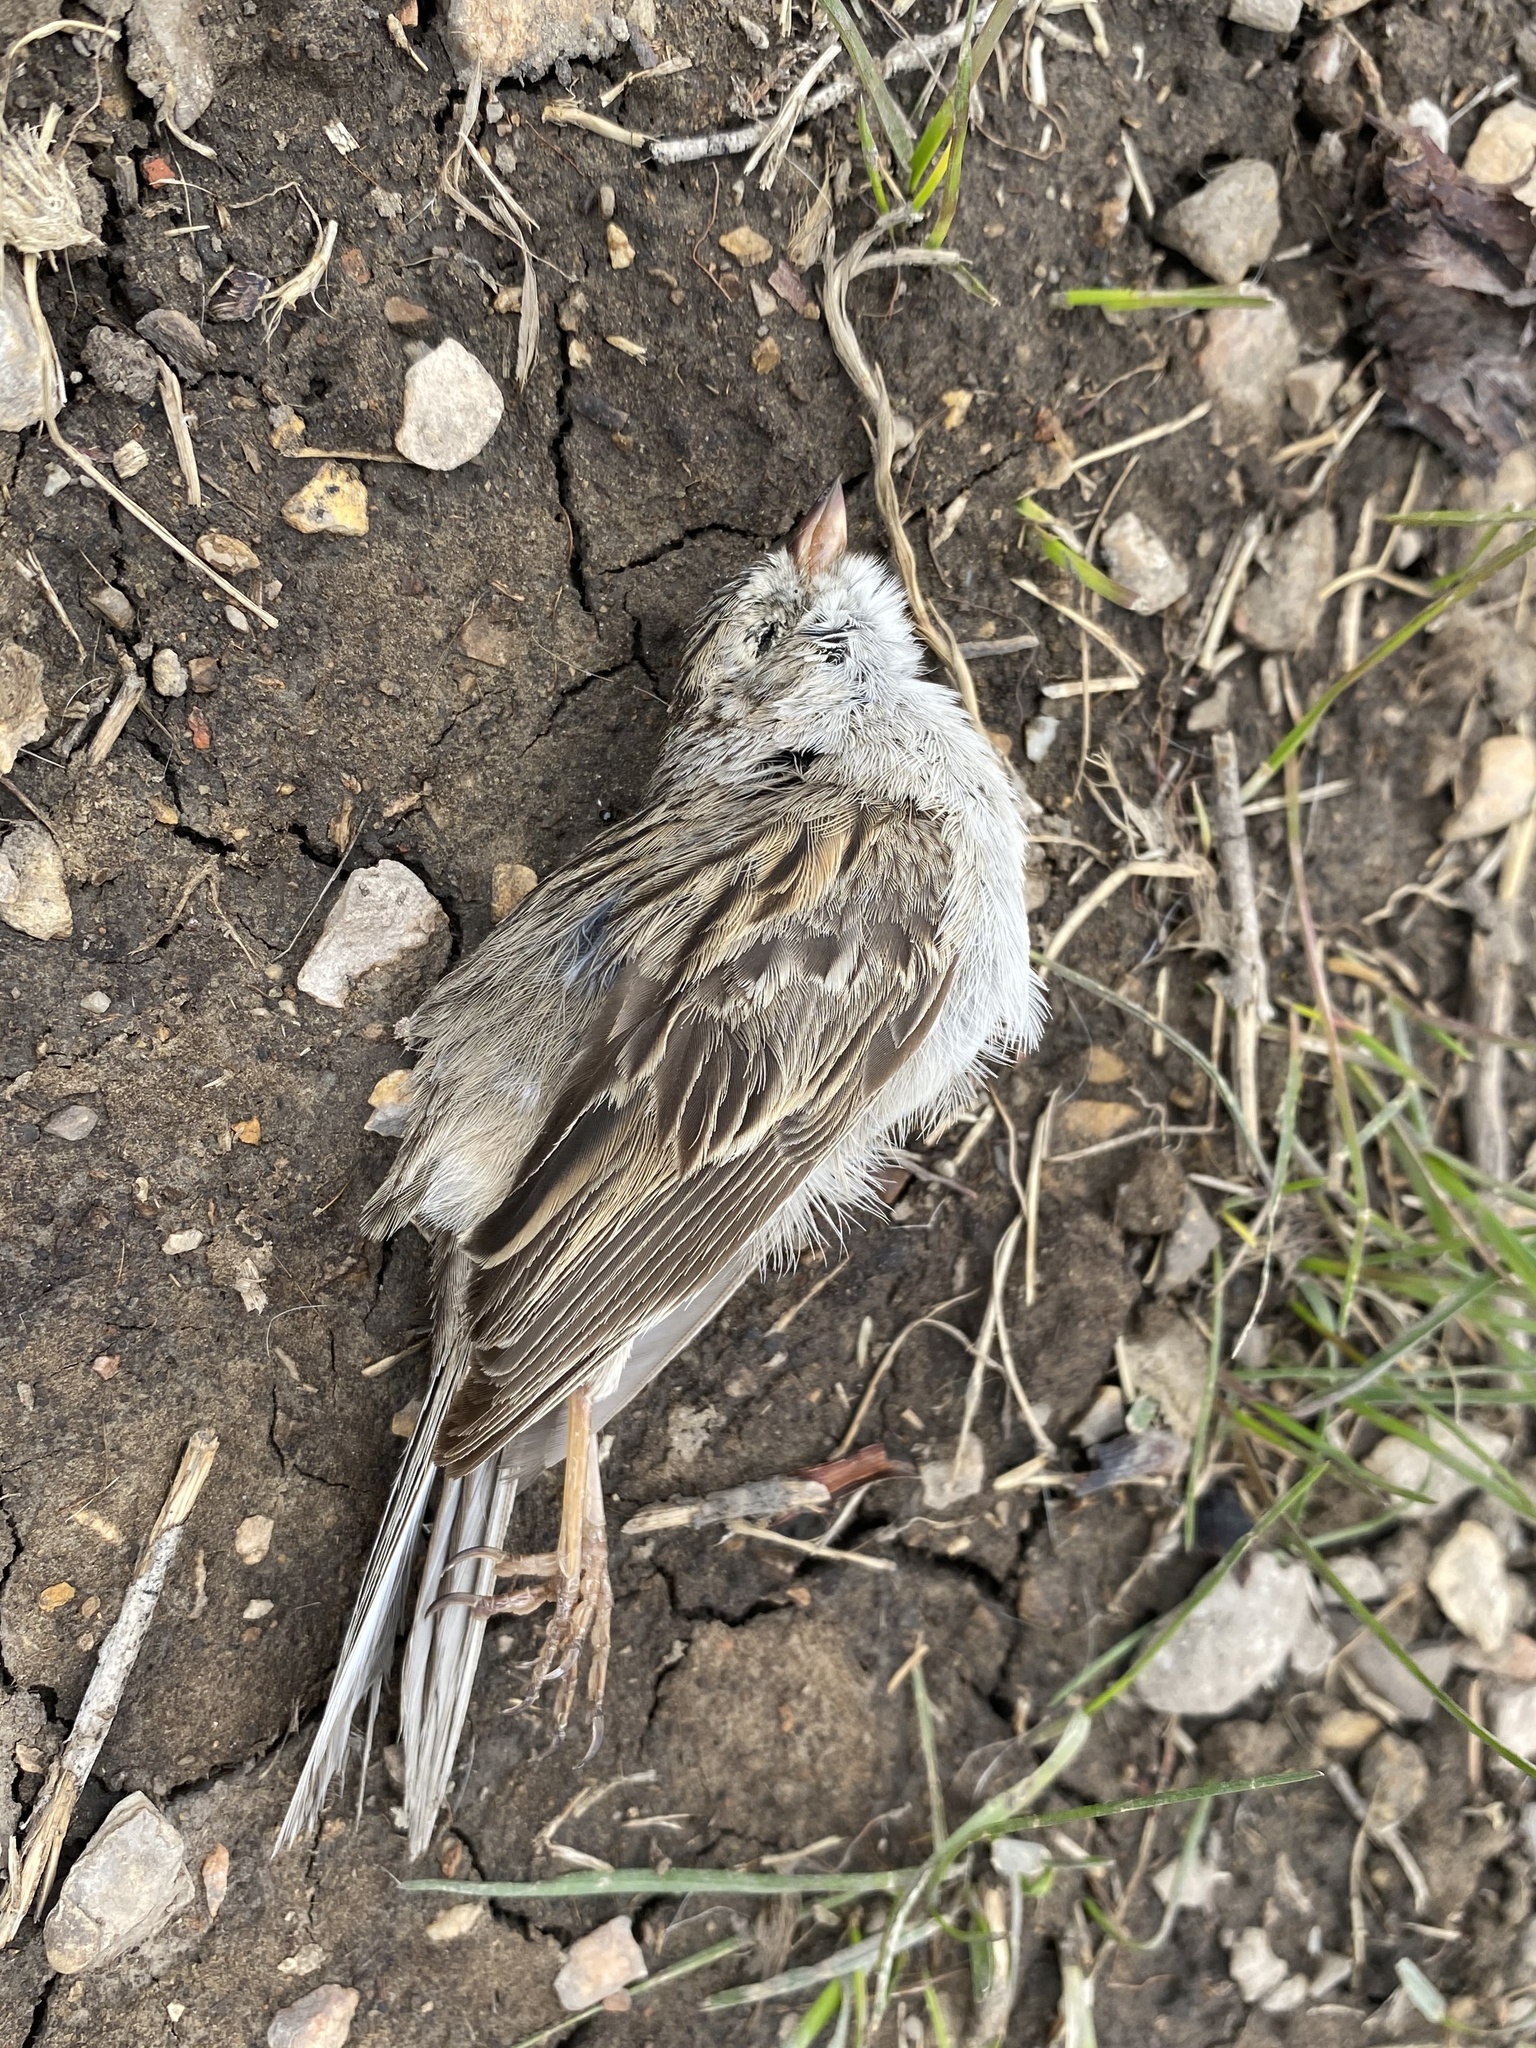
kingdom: Animalia
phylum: Chordata
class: Aves
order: Passeriformes
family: Passerellidae
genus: Spizella
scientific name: Spizella breweri
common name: Brewer's sparrow
